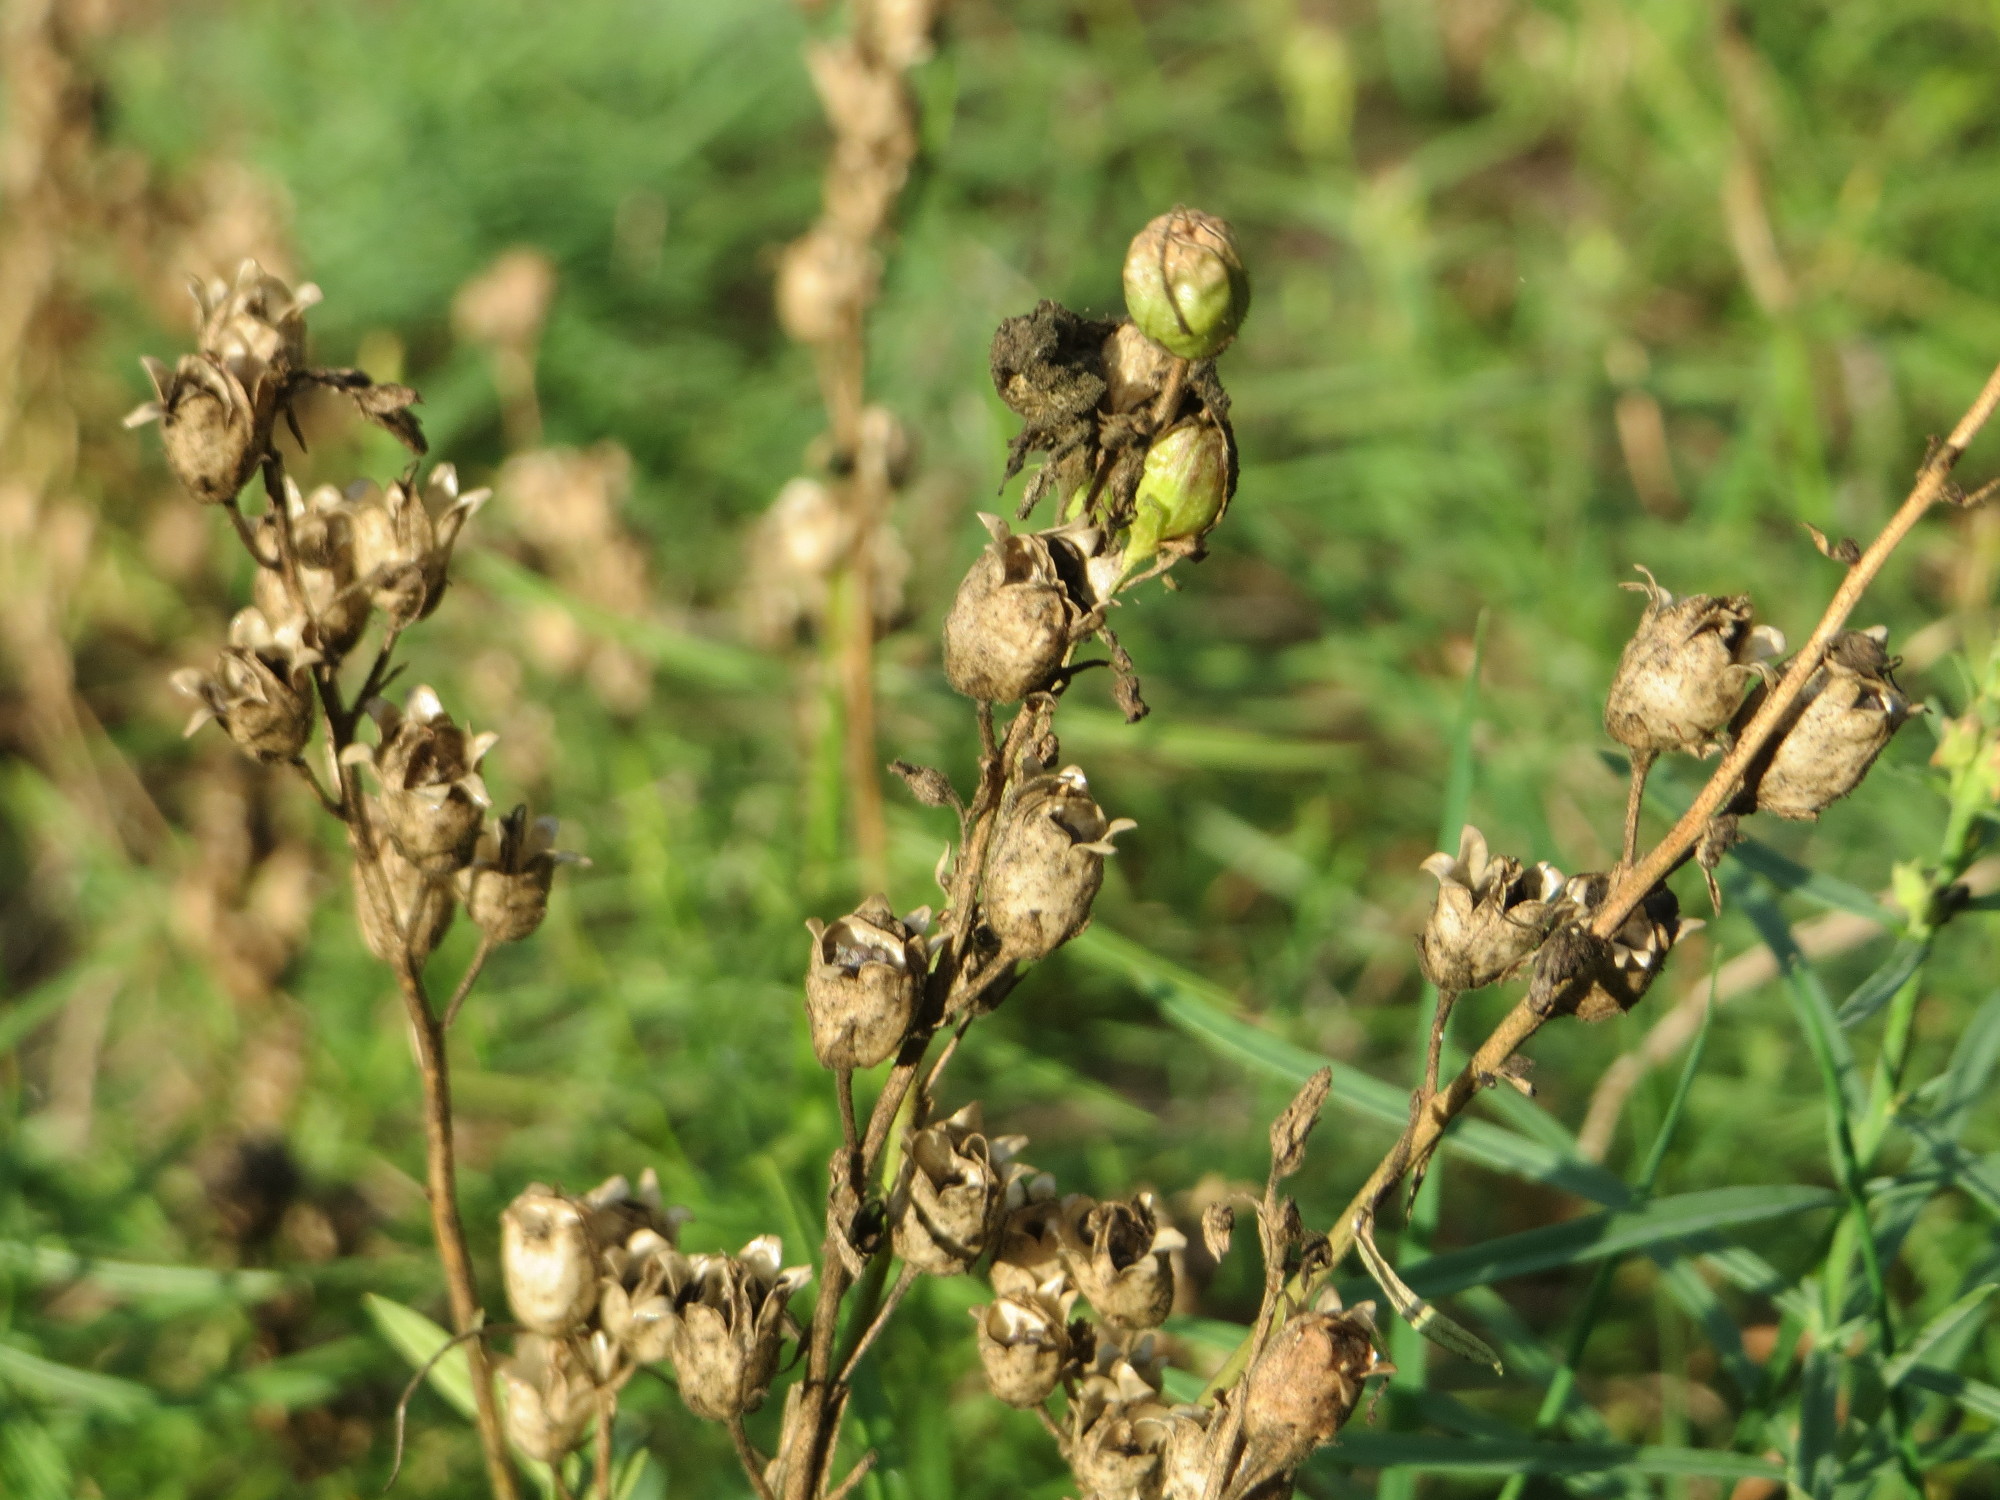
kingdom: Plantae
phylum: Tracheophyta
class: Magnoliopsida
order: Lamiales
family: Plantaginaceae
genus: Linaria
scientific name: Linaria vulgaris
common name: Butter and eggs
